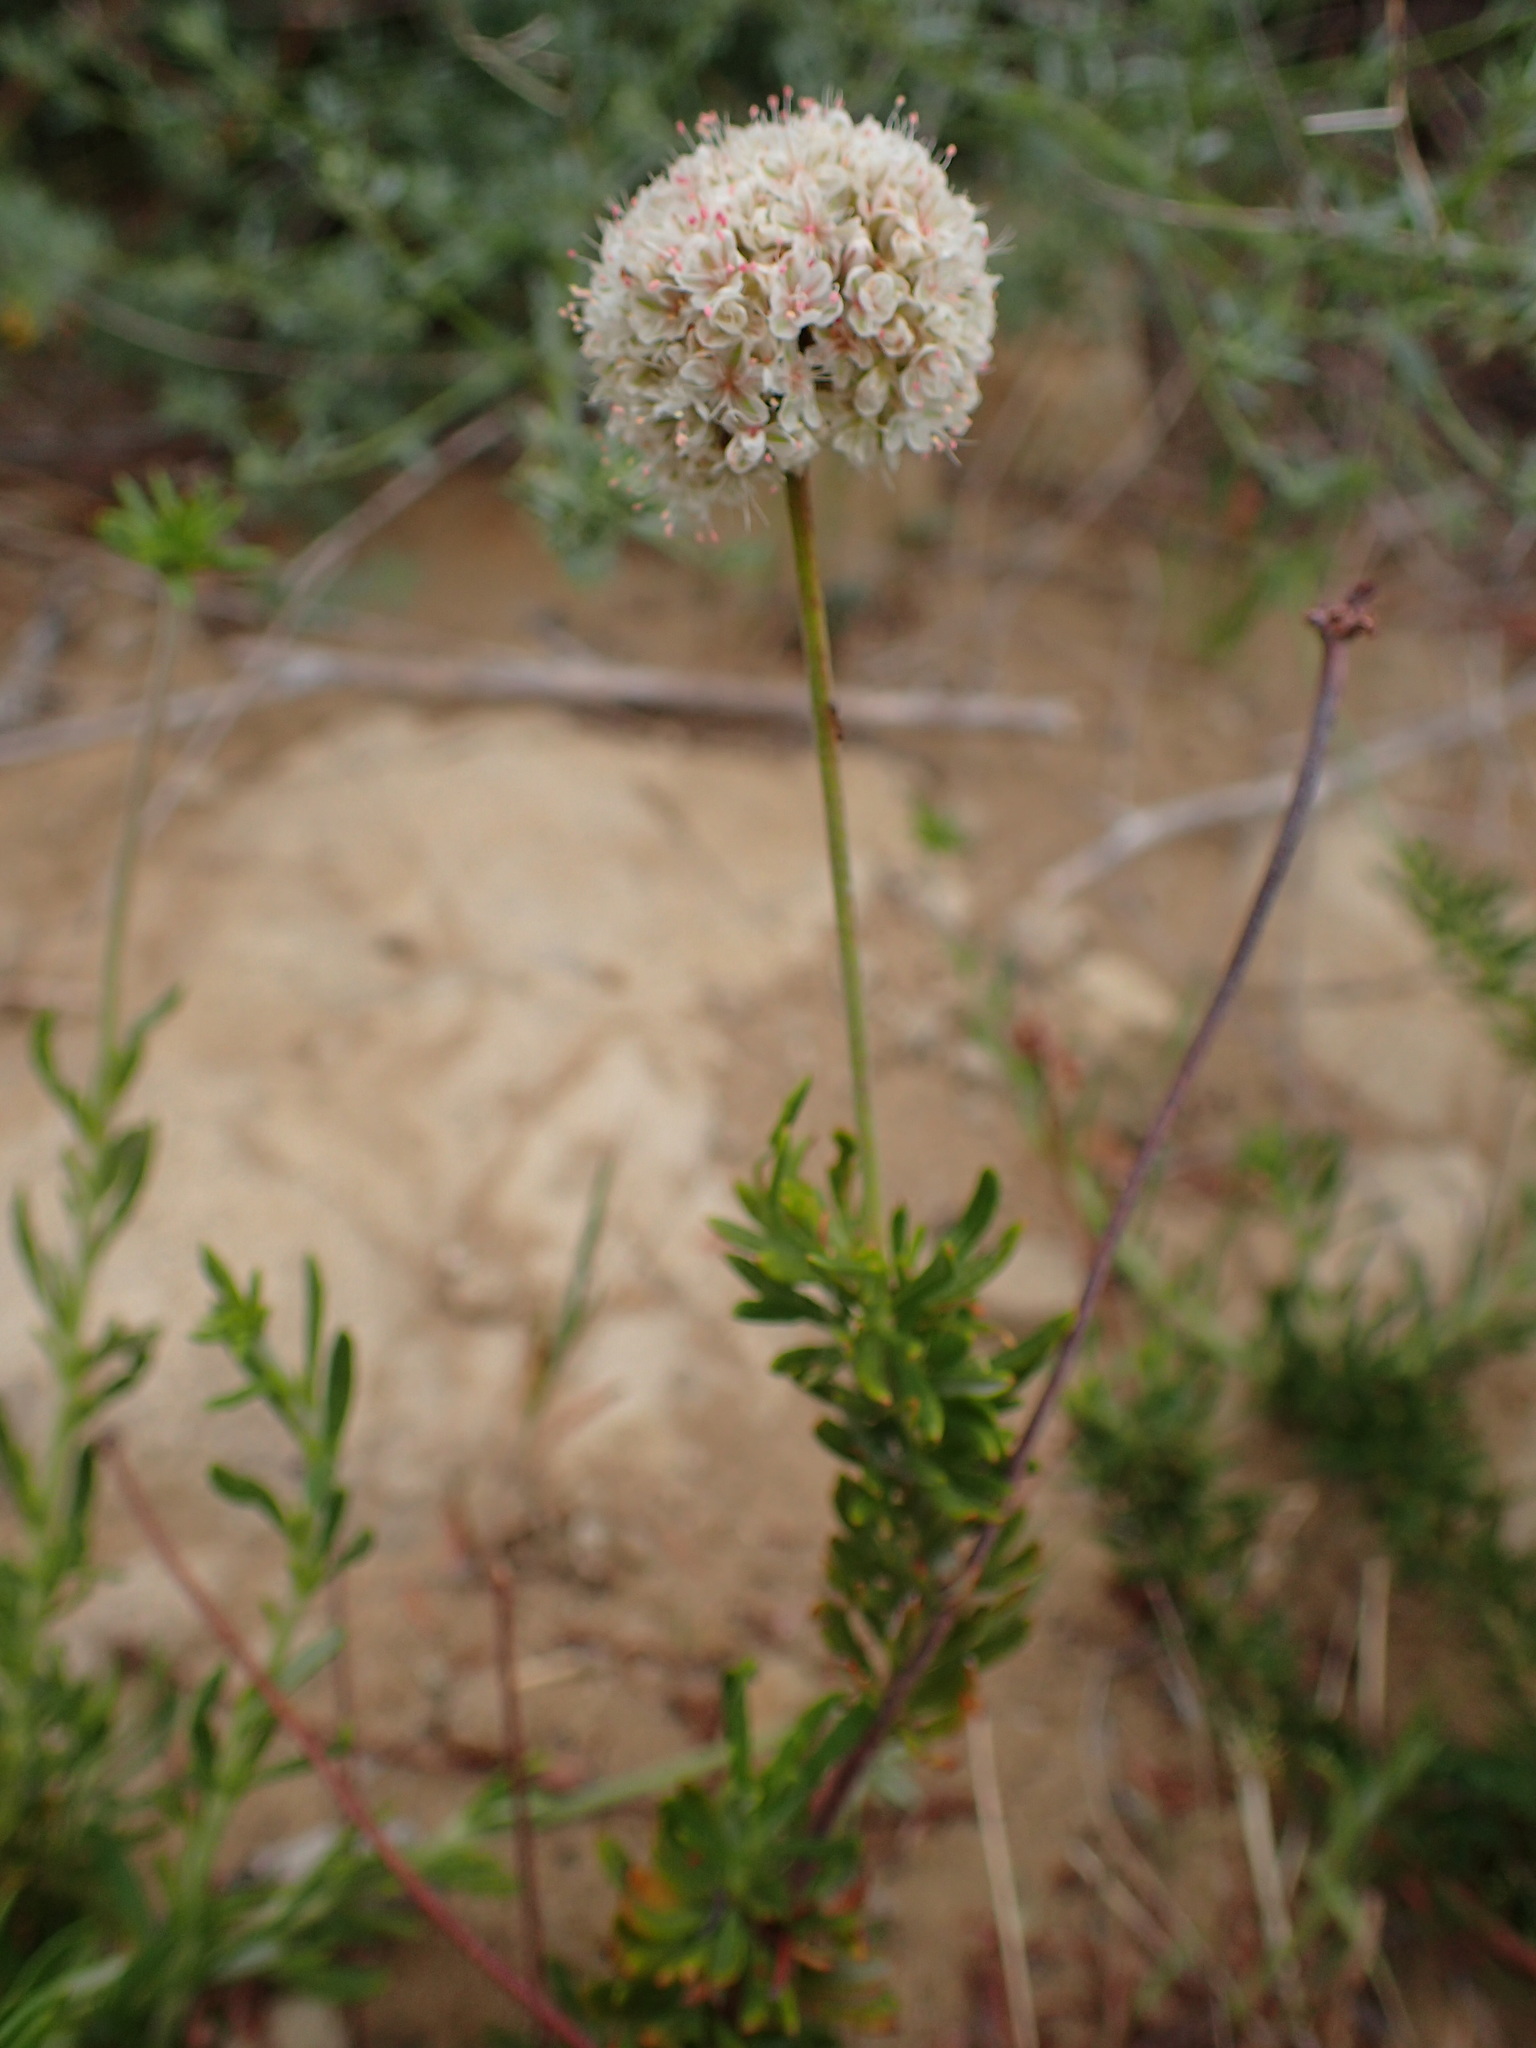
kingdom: Plantae
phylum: Tracheophyta
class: Magnoliopsida
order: Caryophyllales
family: Polygonaceae
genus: Eriogonum
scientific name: Eriogonum fasciculatum
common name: California wild buckwheat
